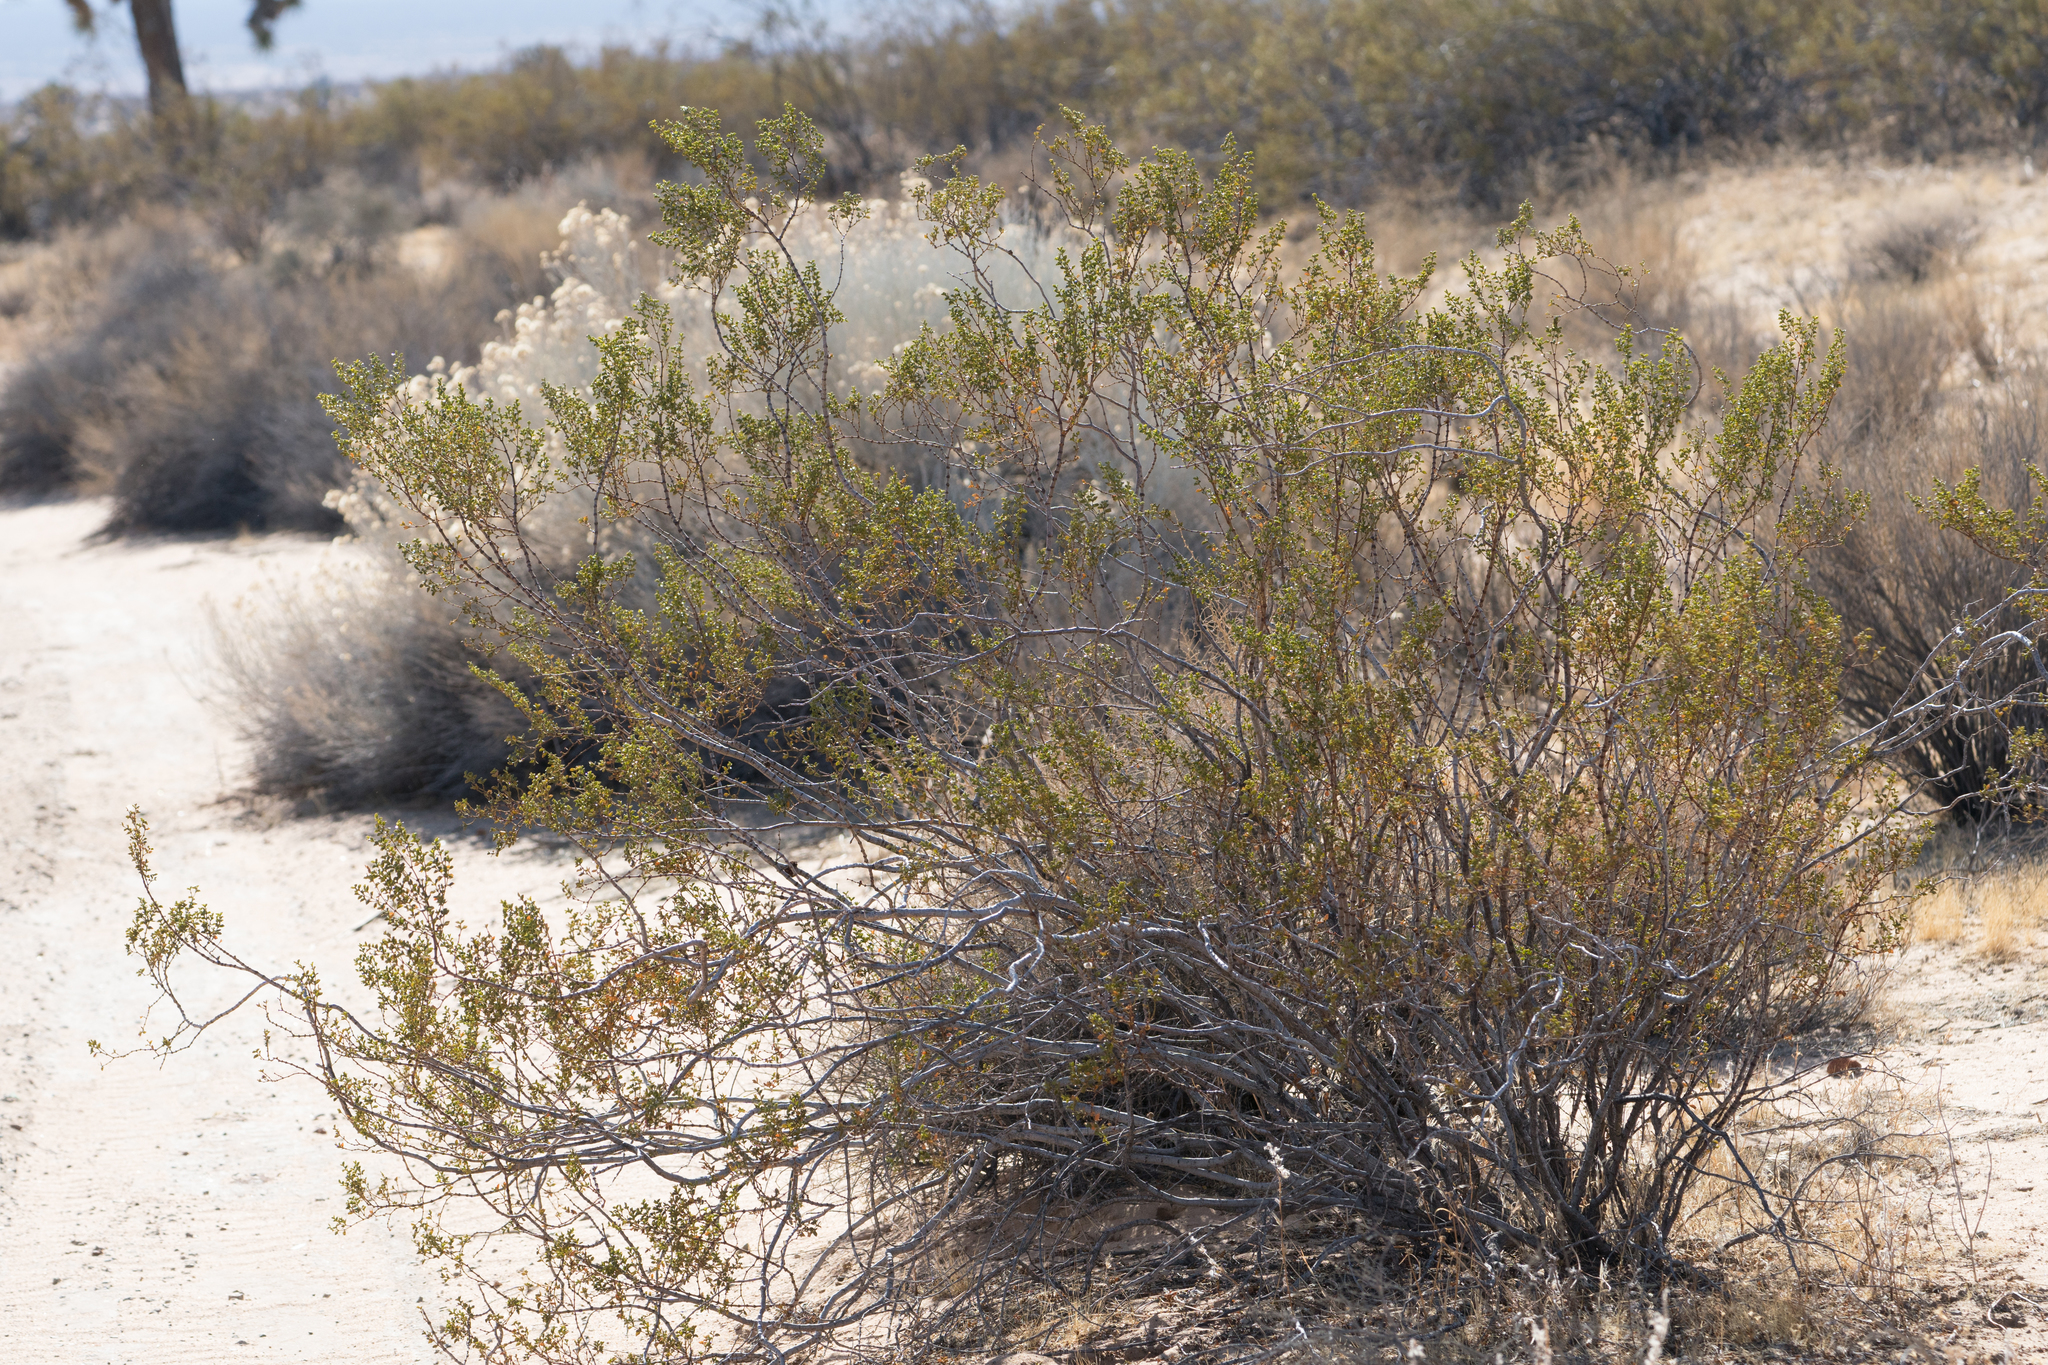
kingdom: Plantae
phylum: Tracheophyta
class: Magnoliopsida
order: Zygophyllales
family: Zygophyllaceae
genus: Larrea
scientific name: Larrea tridentata
